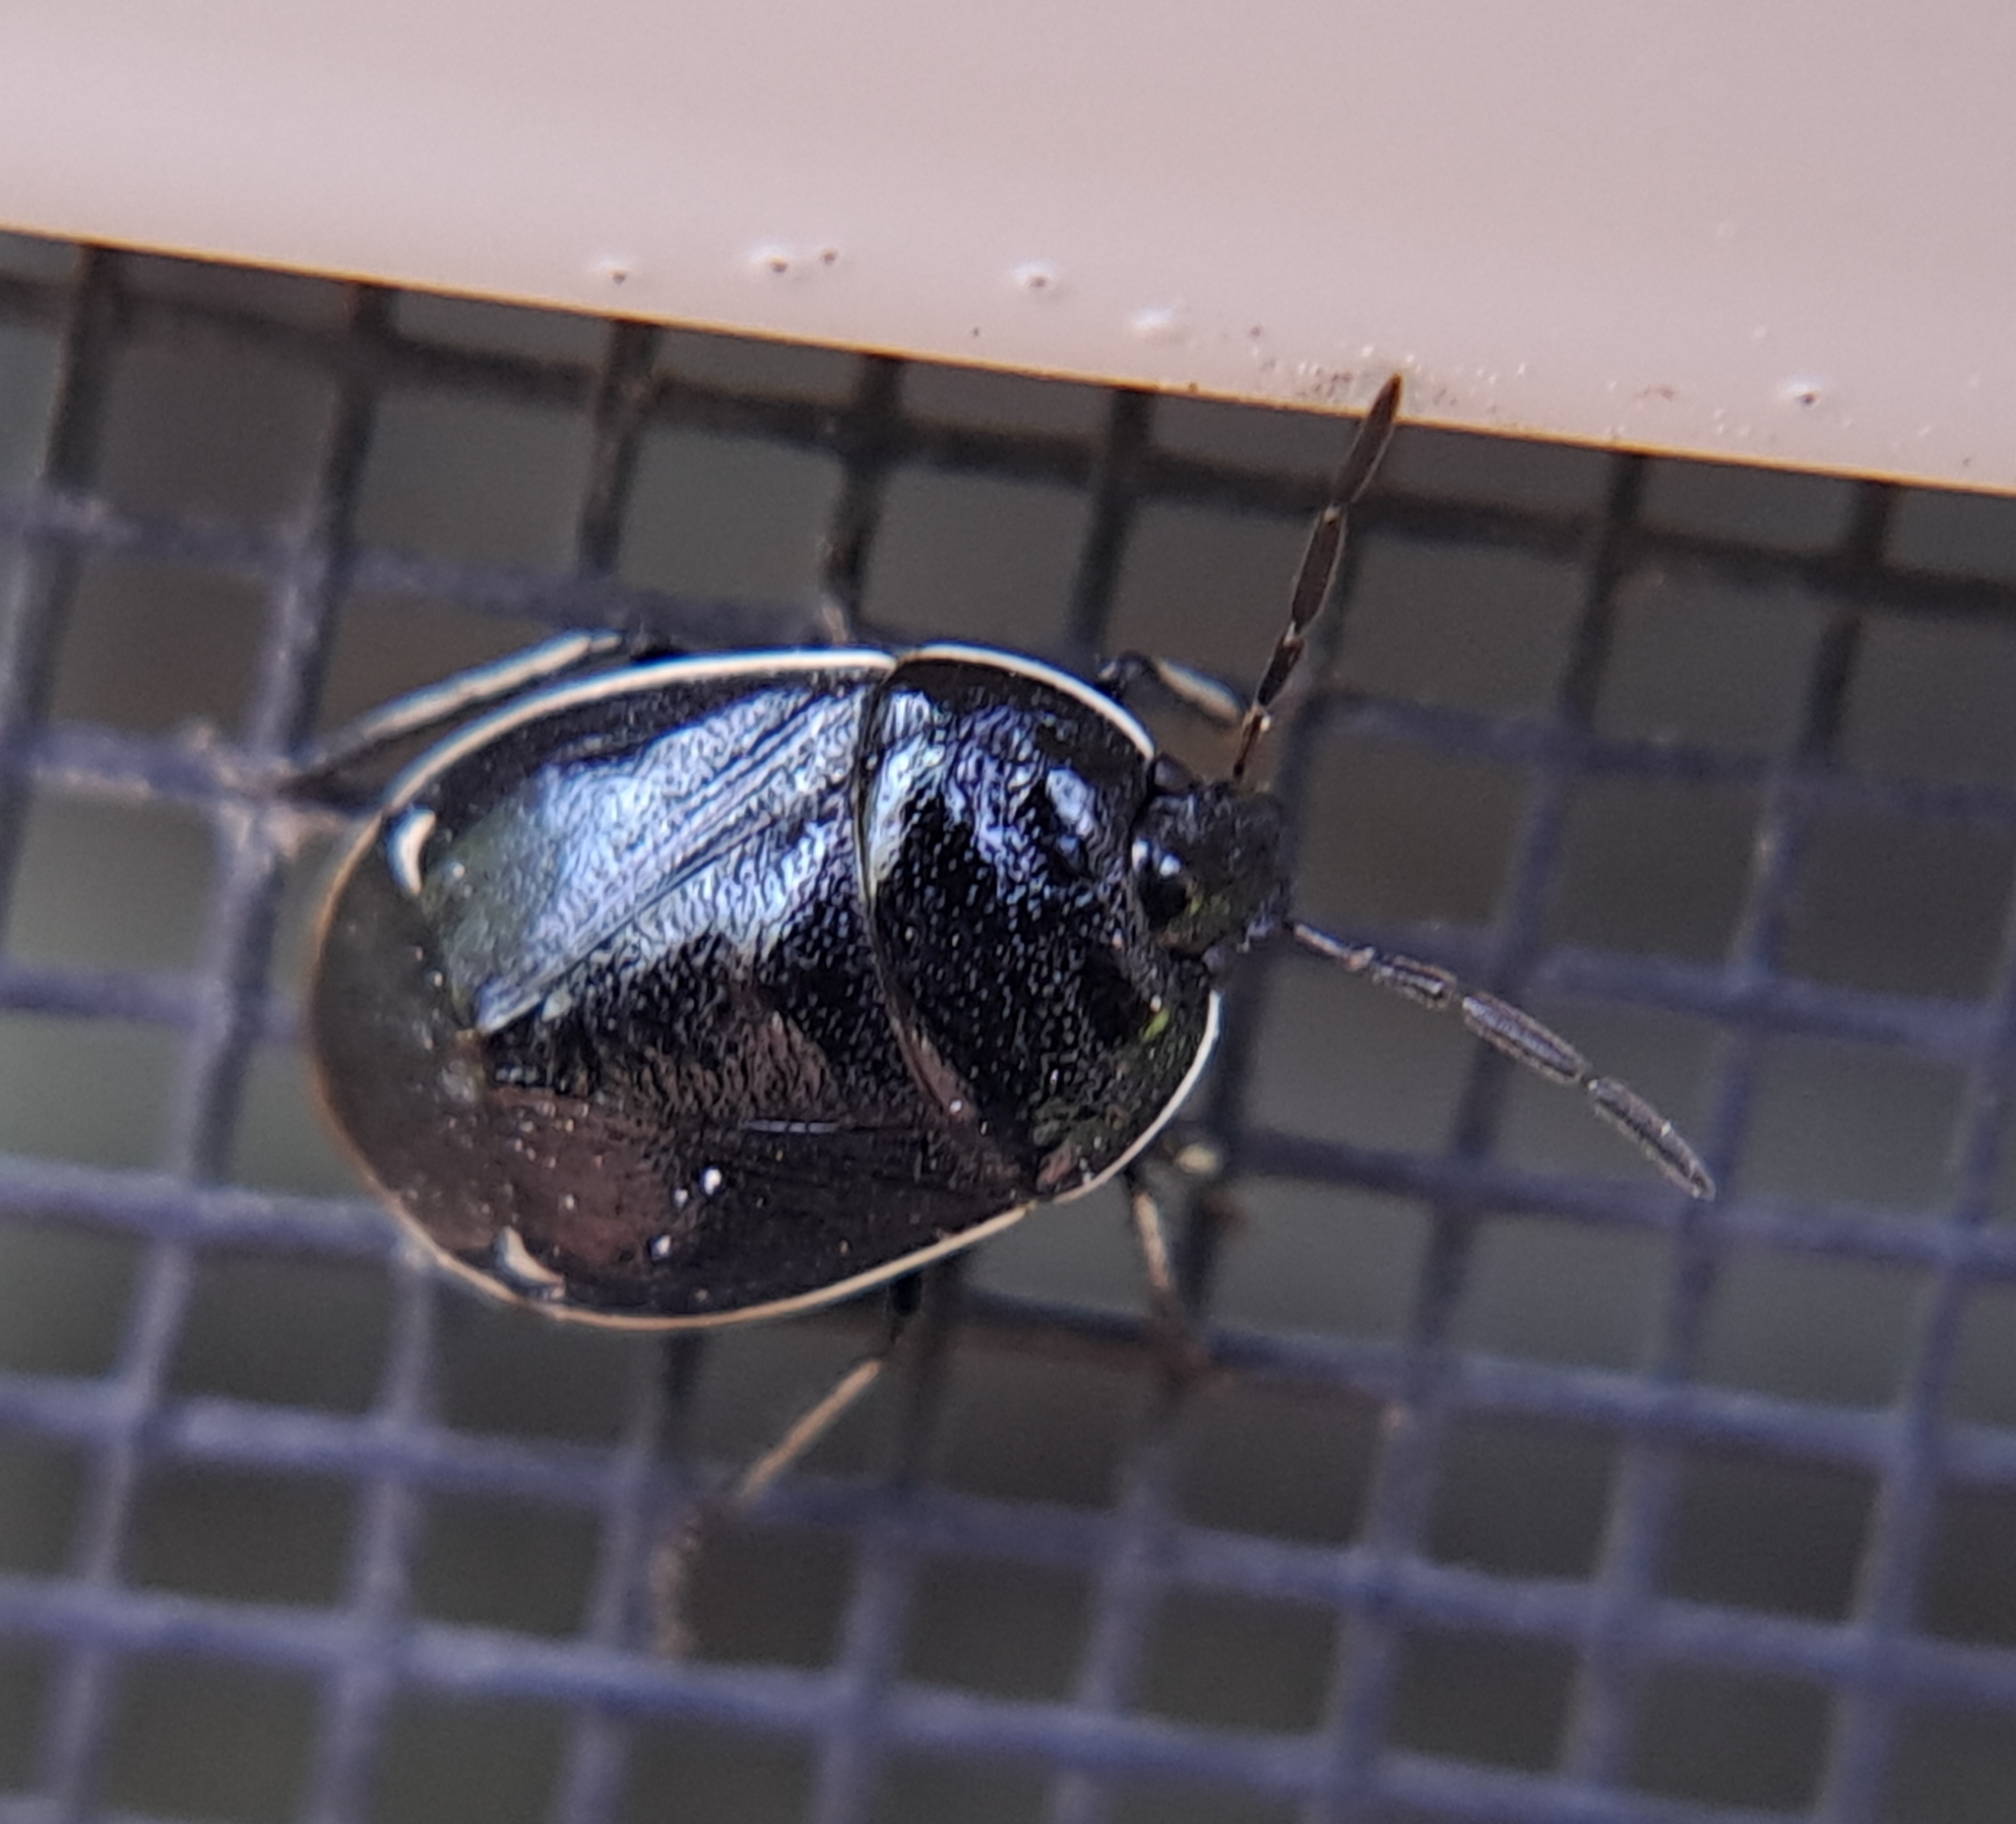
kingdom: Animalia
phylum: Arthropoda
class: Insecta
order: Hemiptera
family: Cydnidae
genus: Sehirus
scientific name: Sehirus cinctus
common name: White-margined burrower bug
